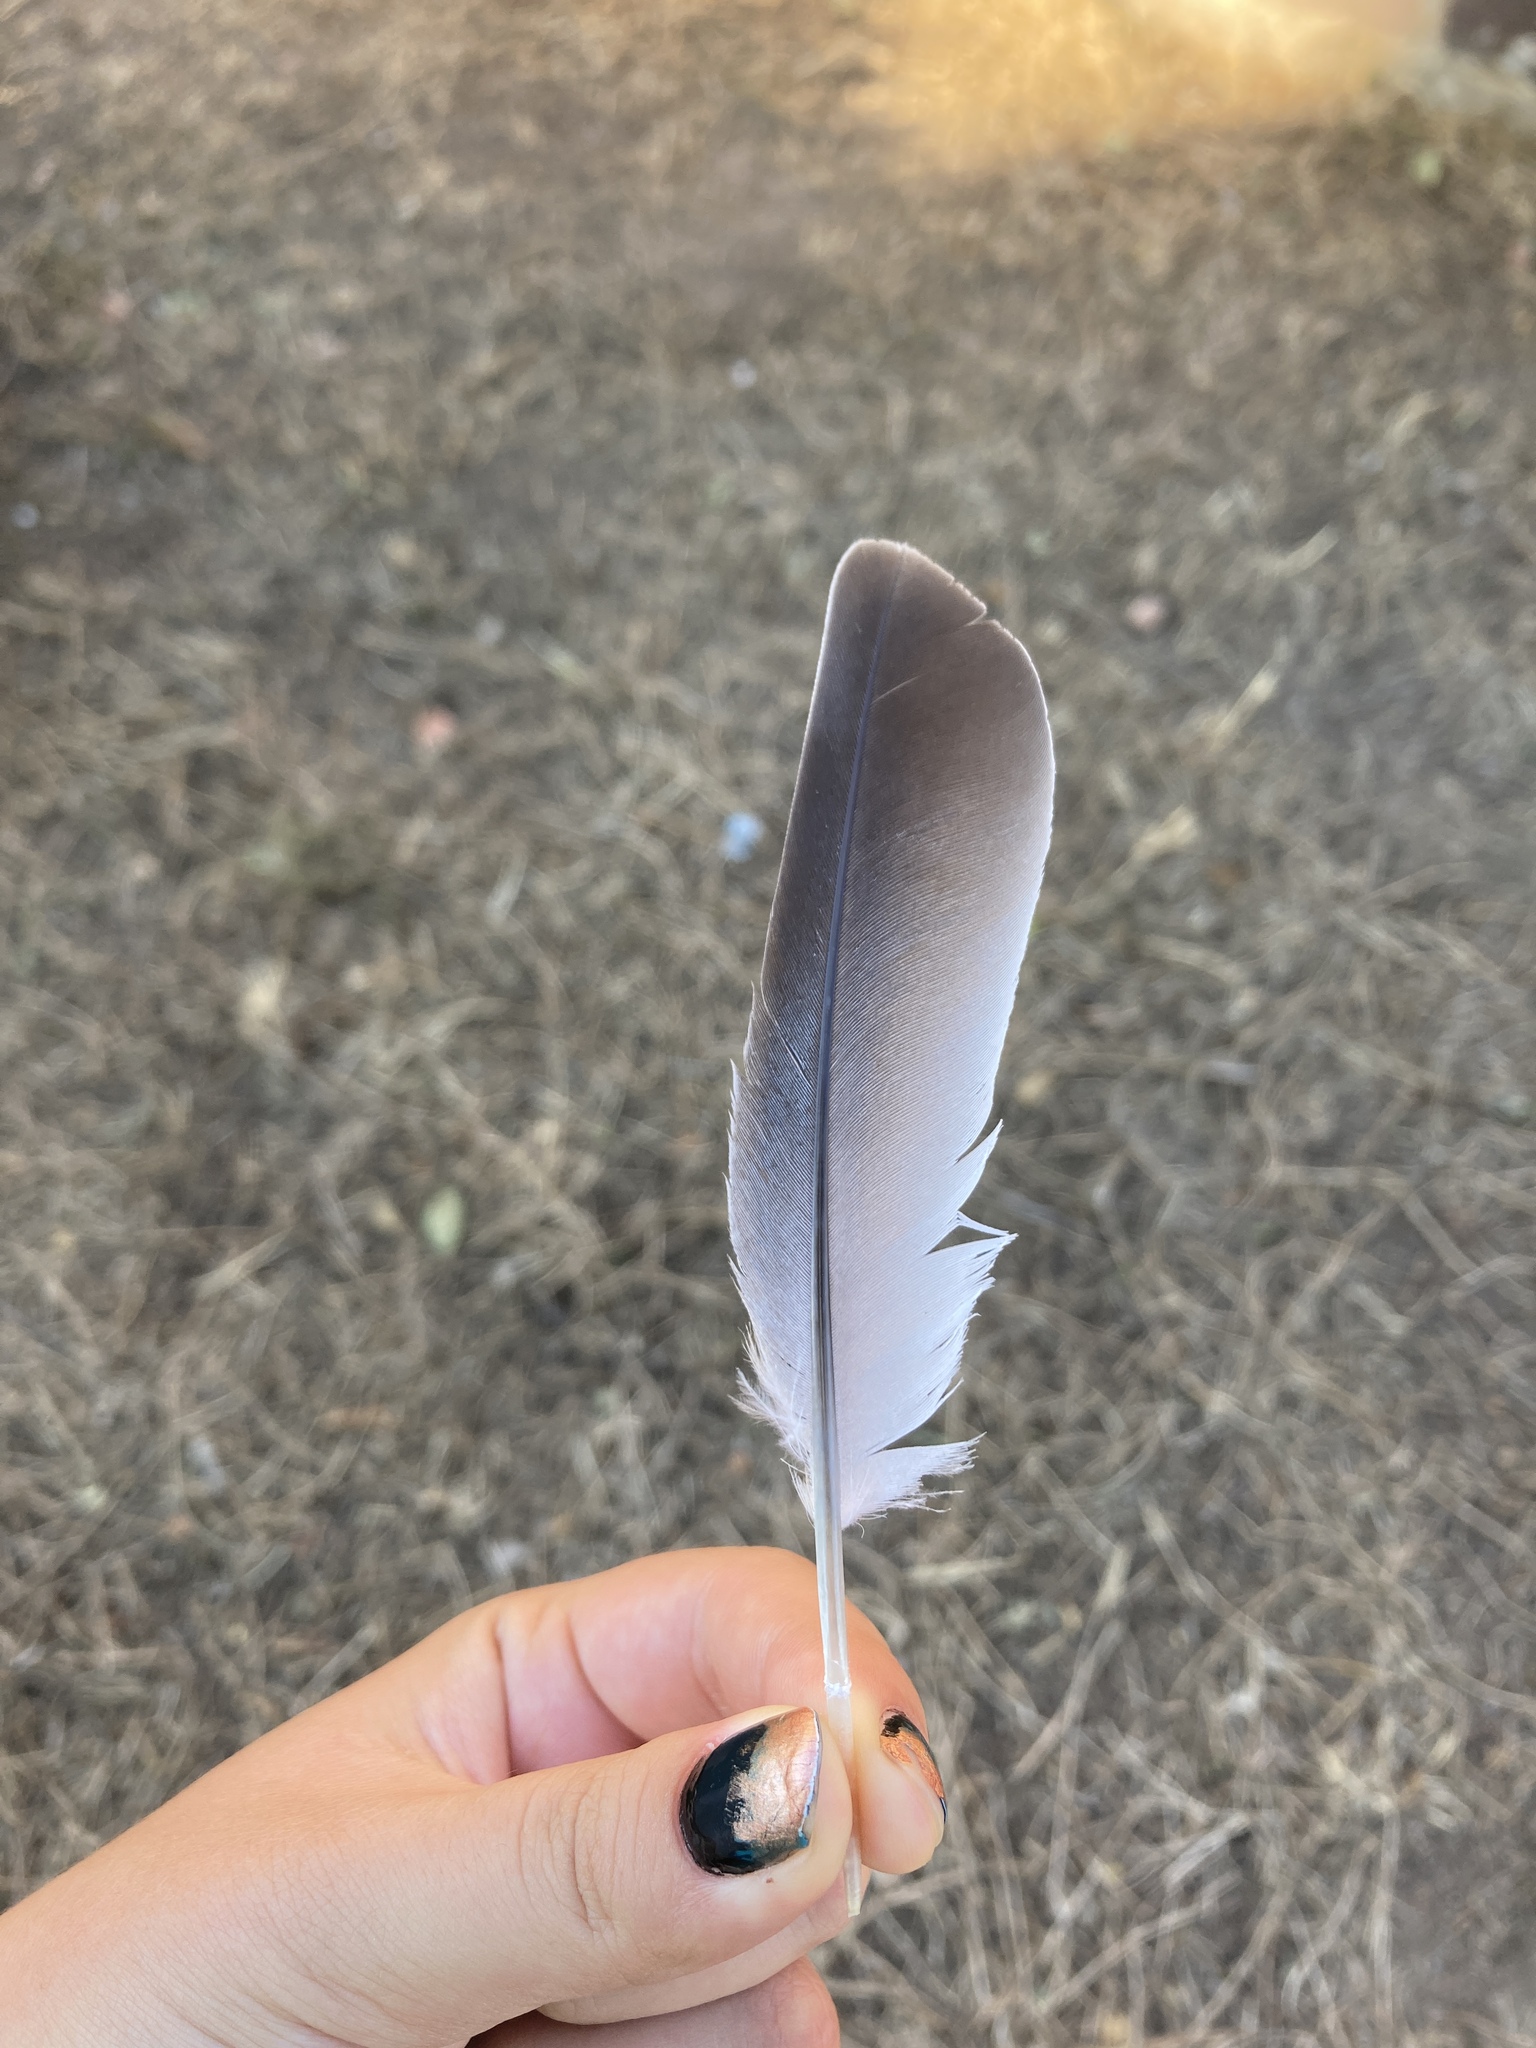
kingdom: Animalia
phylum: Chordata
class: Aves
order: Columbiformes
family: Columbidae
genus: Streptopelia
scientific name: Streptopelia decaocto
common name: Eurasian collared dove
